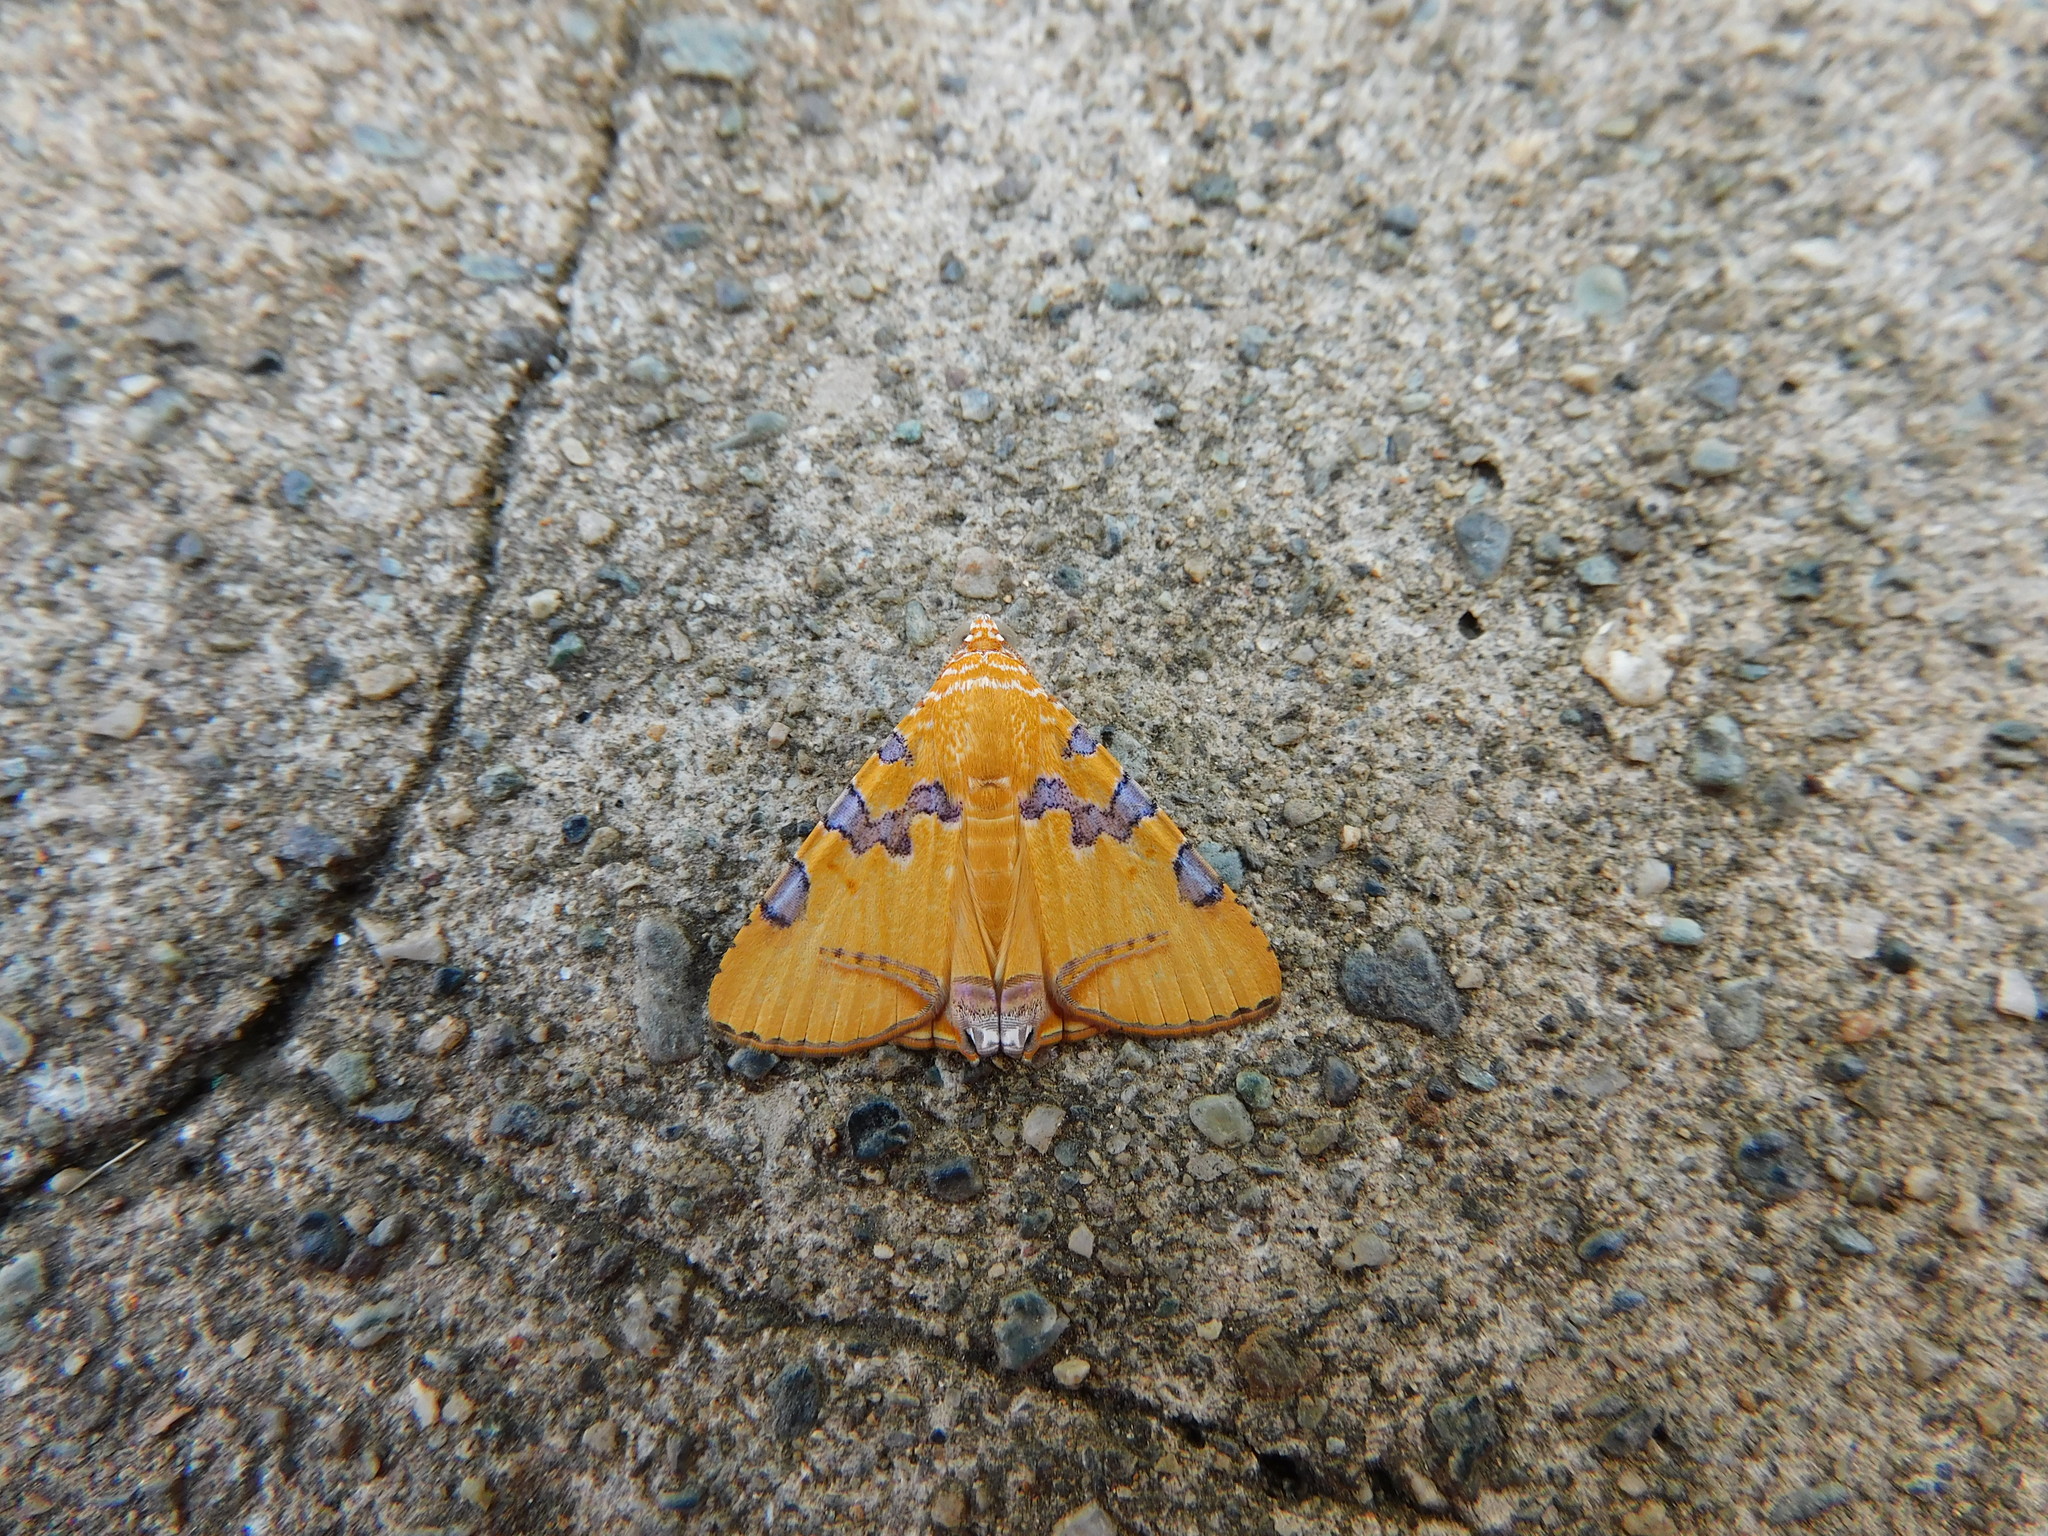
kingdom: Animalia
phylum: Arthropoda
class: Insecta
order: Lepidoptera
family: Erebidae
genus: Eulepidotis
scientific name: Eulepidotis hermura
